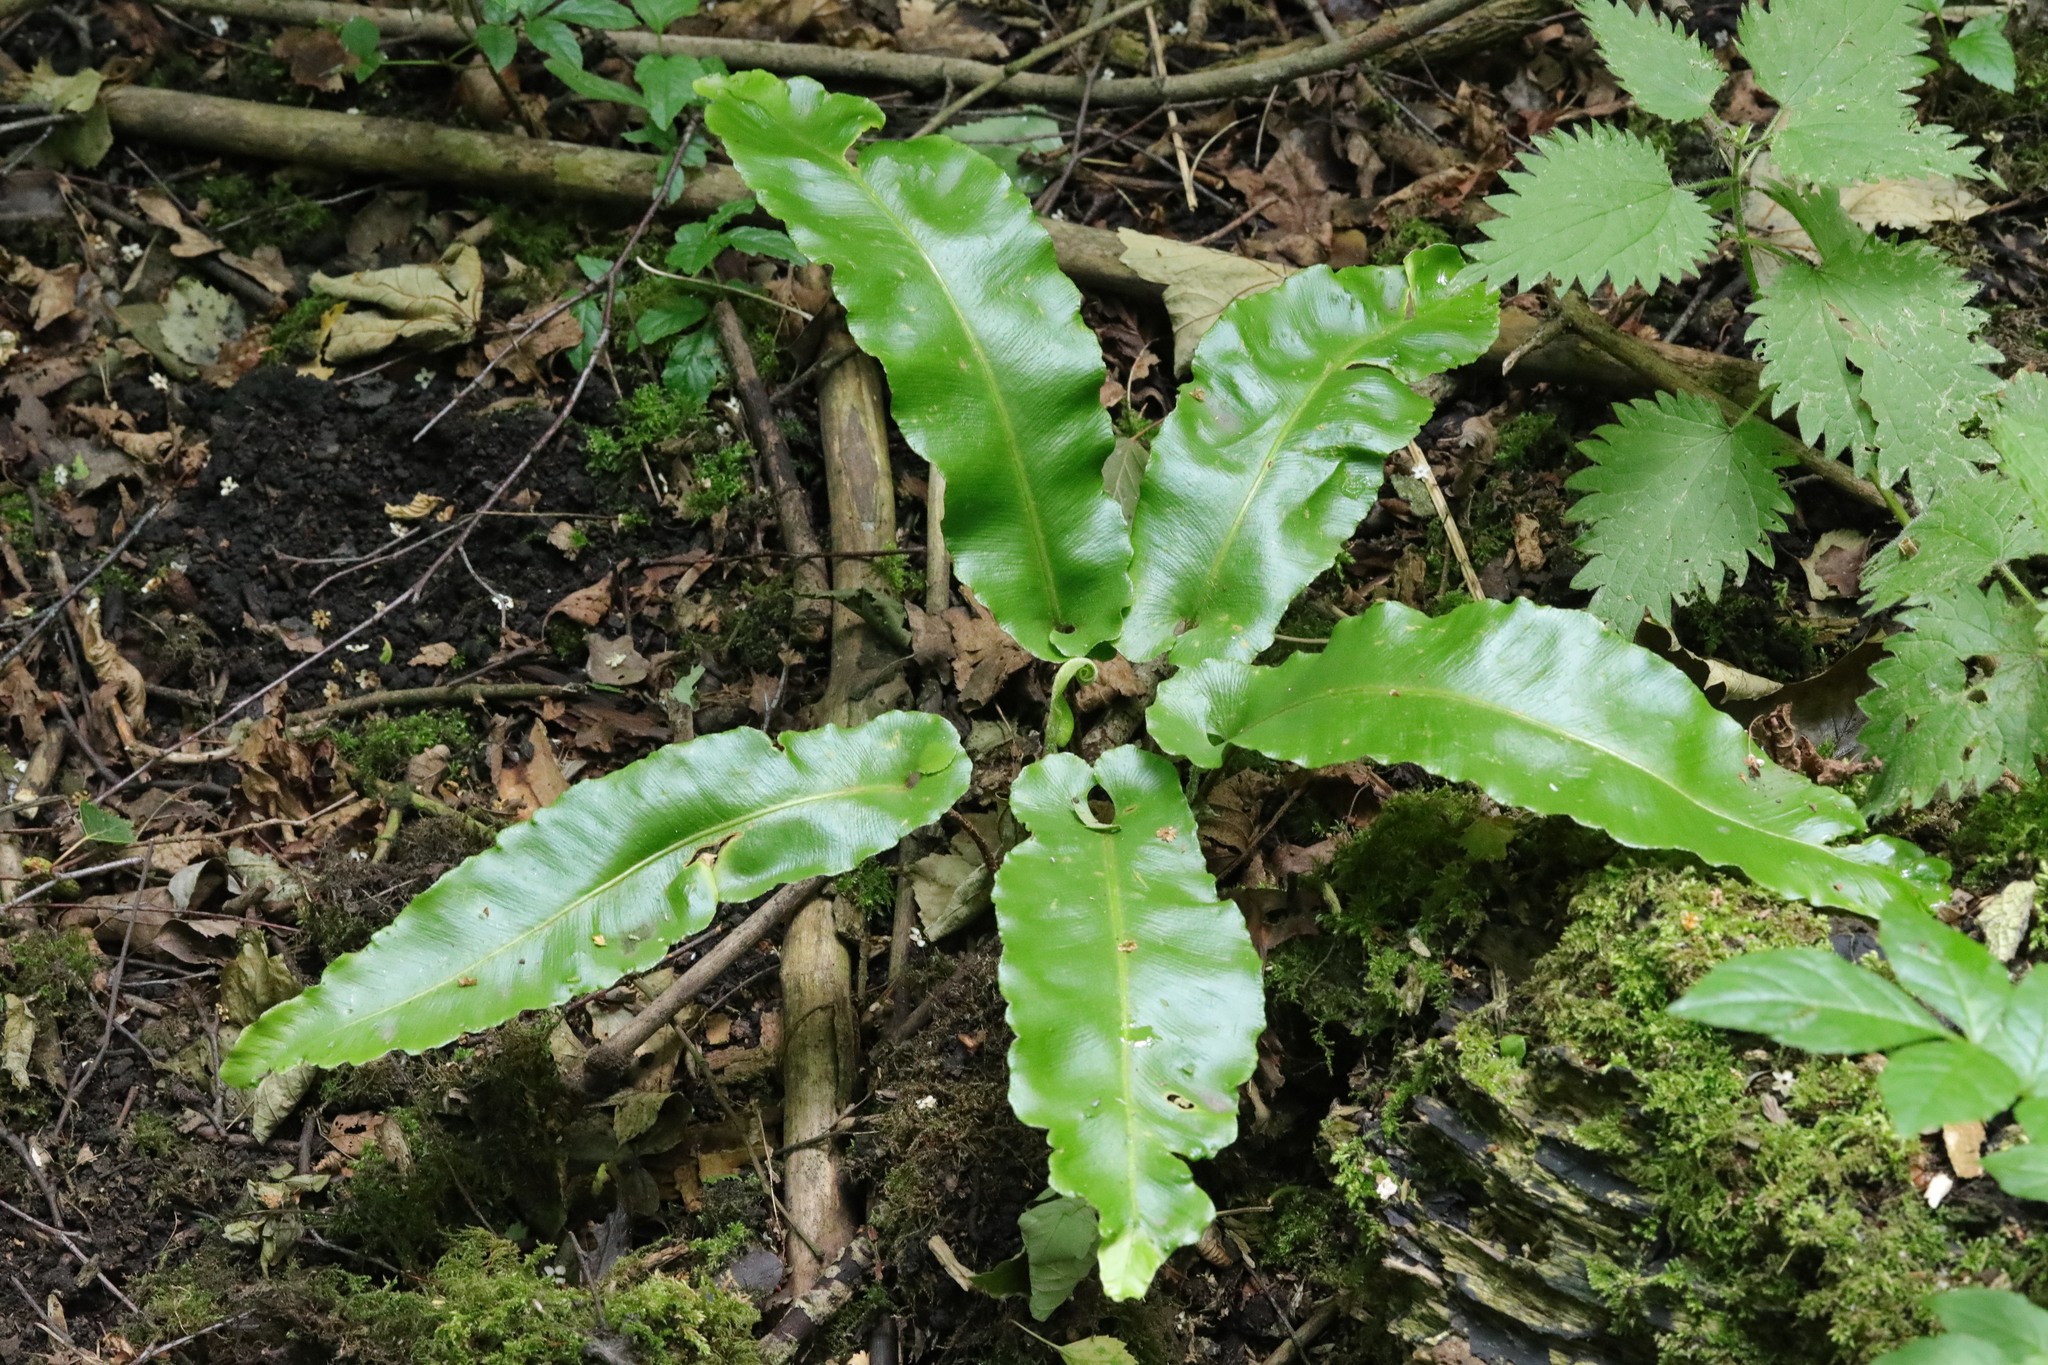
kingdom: Plantae
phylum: Tracheophyta
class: Polypodiopsida
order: Polypodiales
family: Aspleniaceae
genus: Asplenium
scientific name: Asplenium scolopendrium
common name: Hart's-tongue fern
